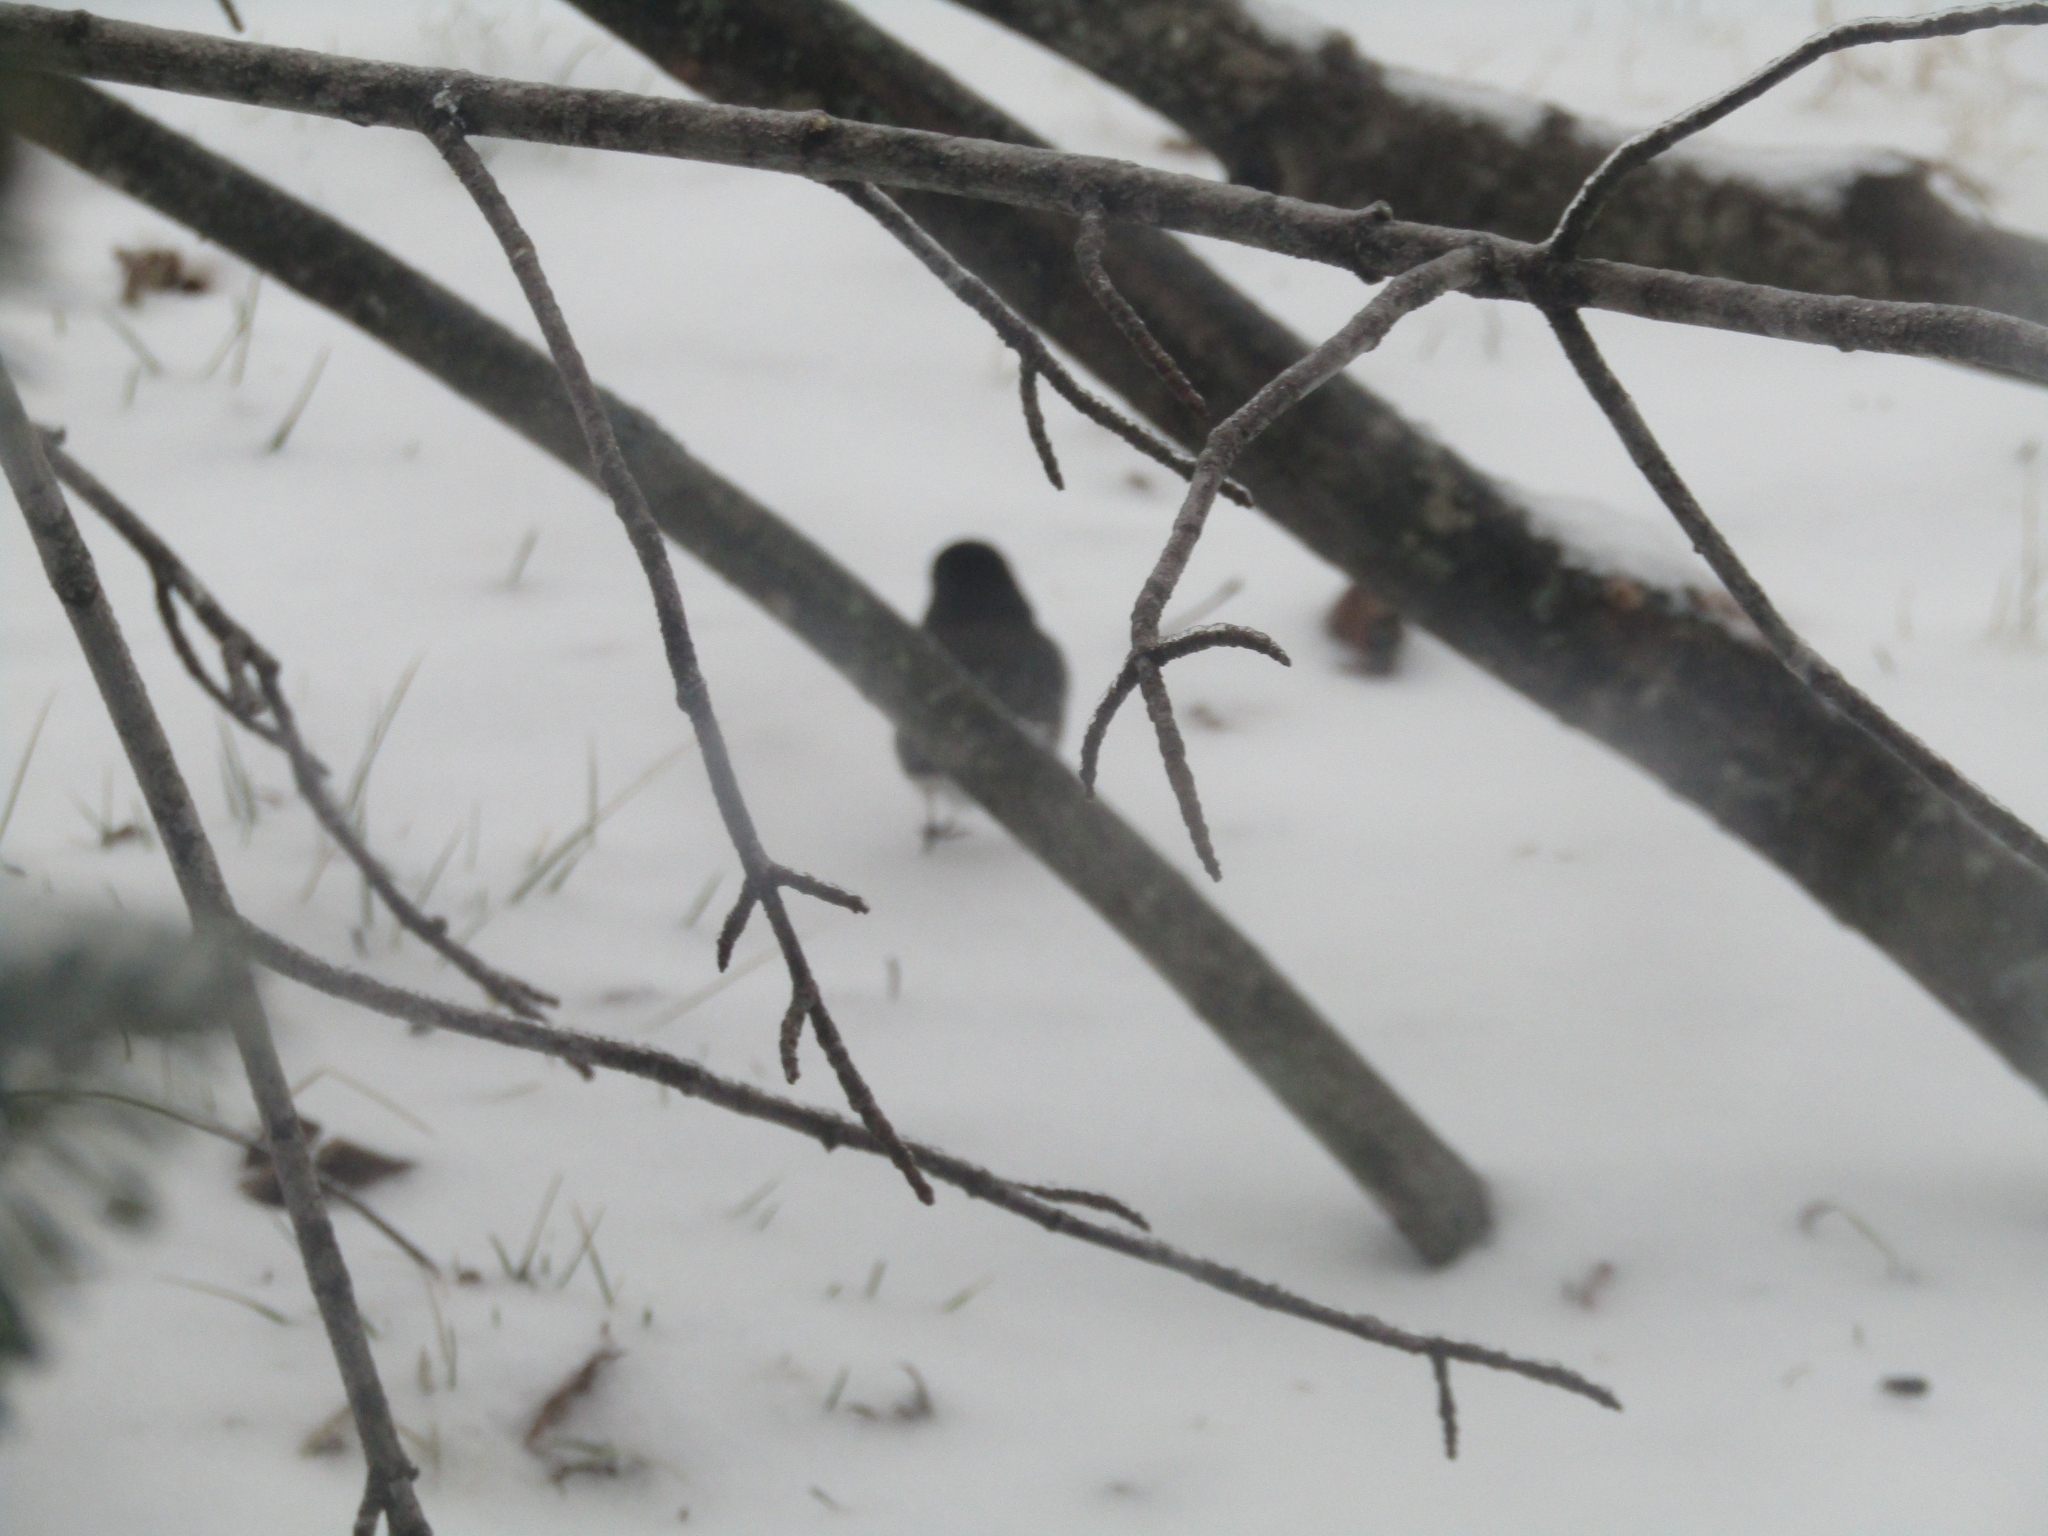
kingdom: Animalia
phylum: Chordata
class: Aves
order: Passeriformes
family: Passerellidae
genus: Junco
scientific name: Junco hyemalis
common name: Dark-eyed junco
